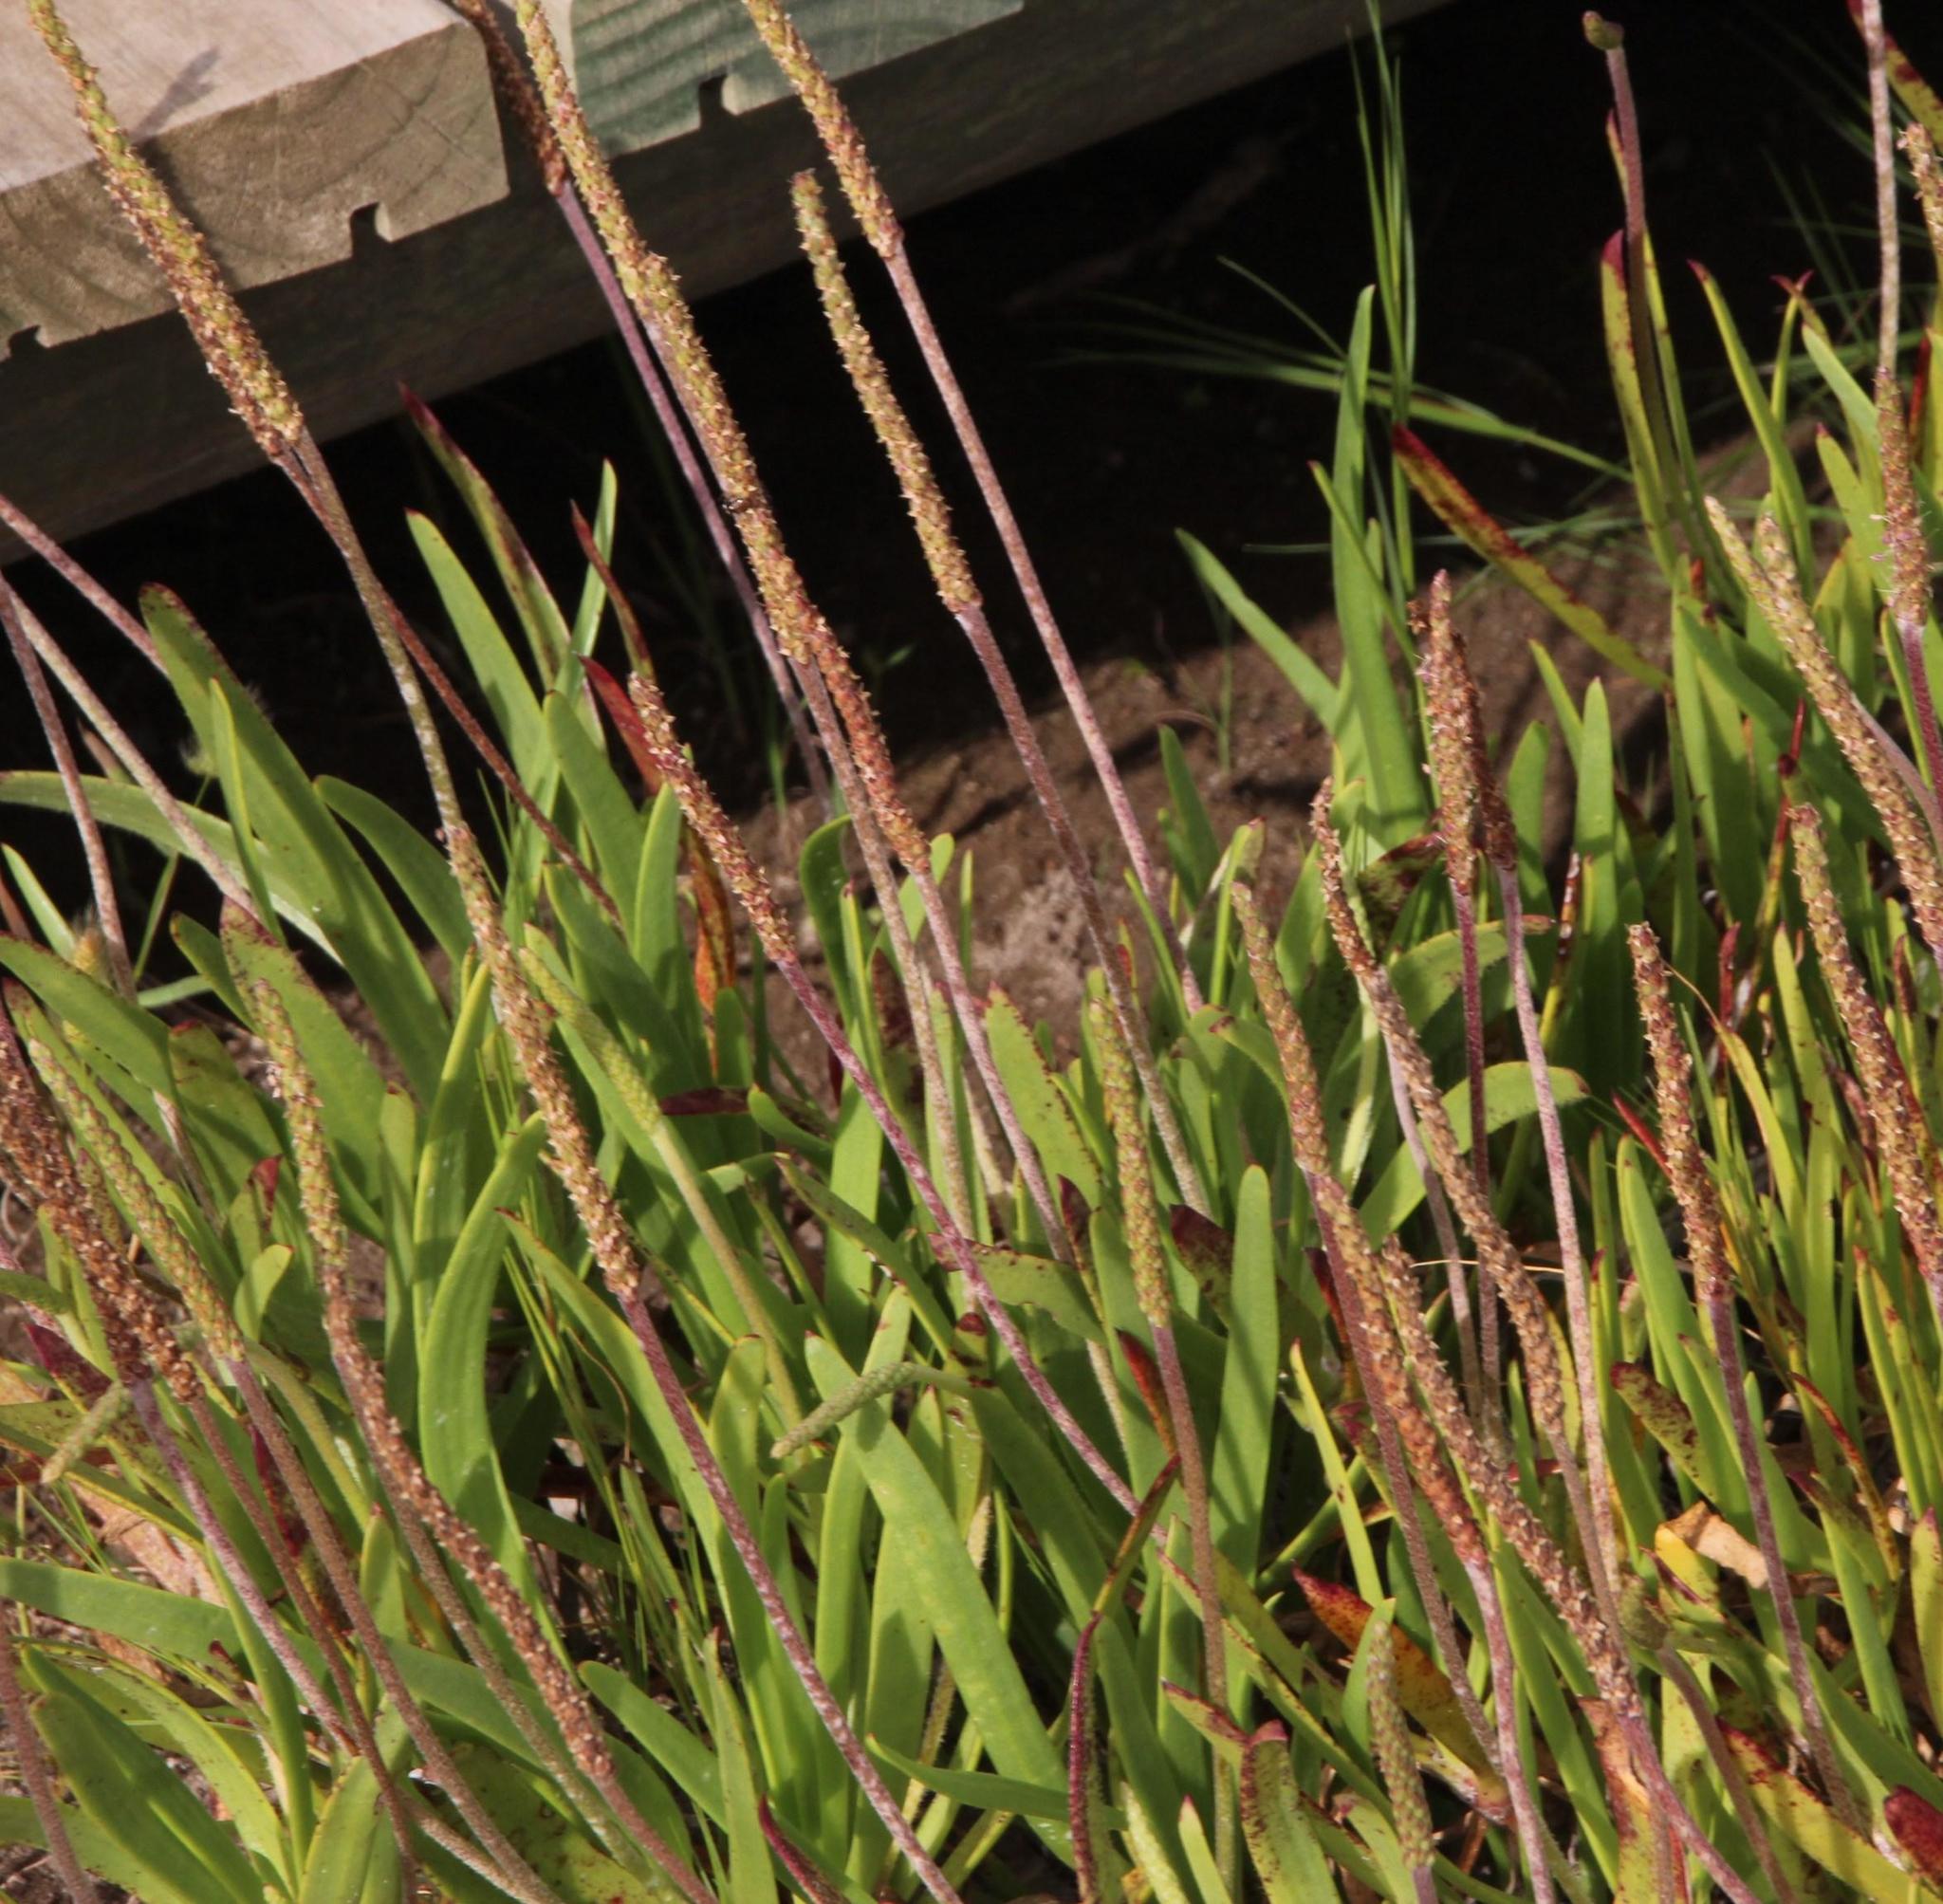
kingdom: Plantae
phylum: Tracheophyta
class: Magnoliopsida
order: Lamiales
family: Plantaginaceae
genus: Plantago
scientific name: Plantago carnosa
